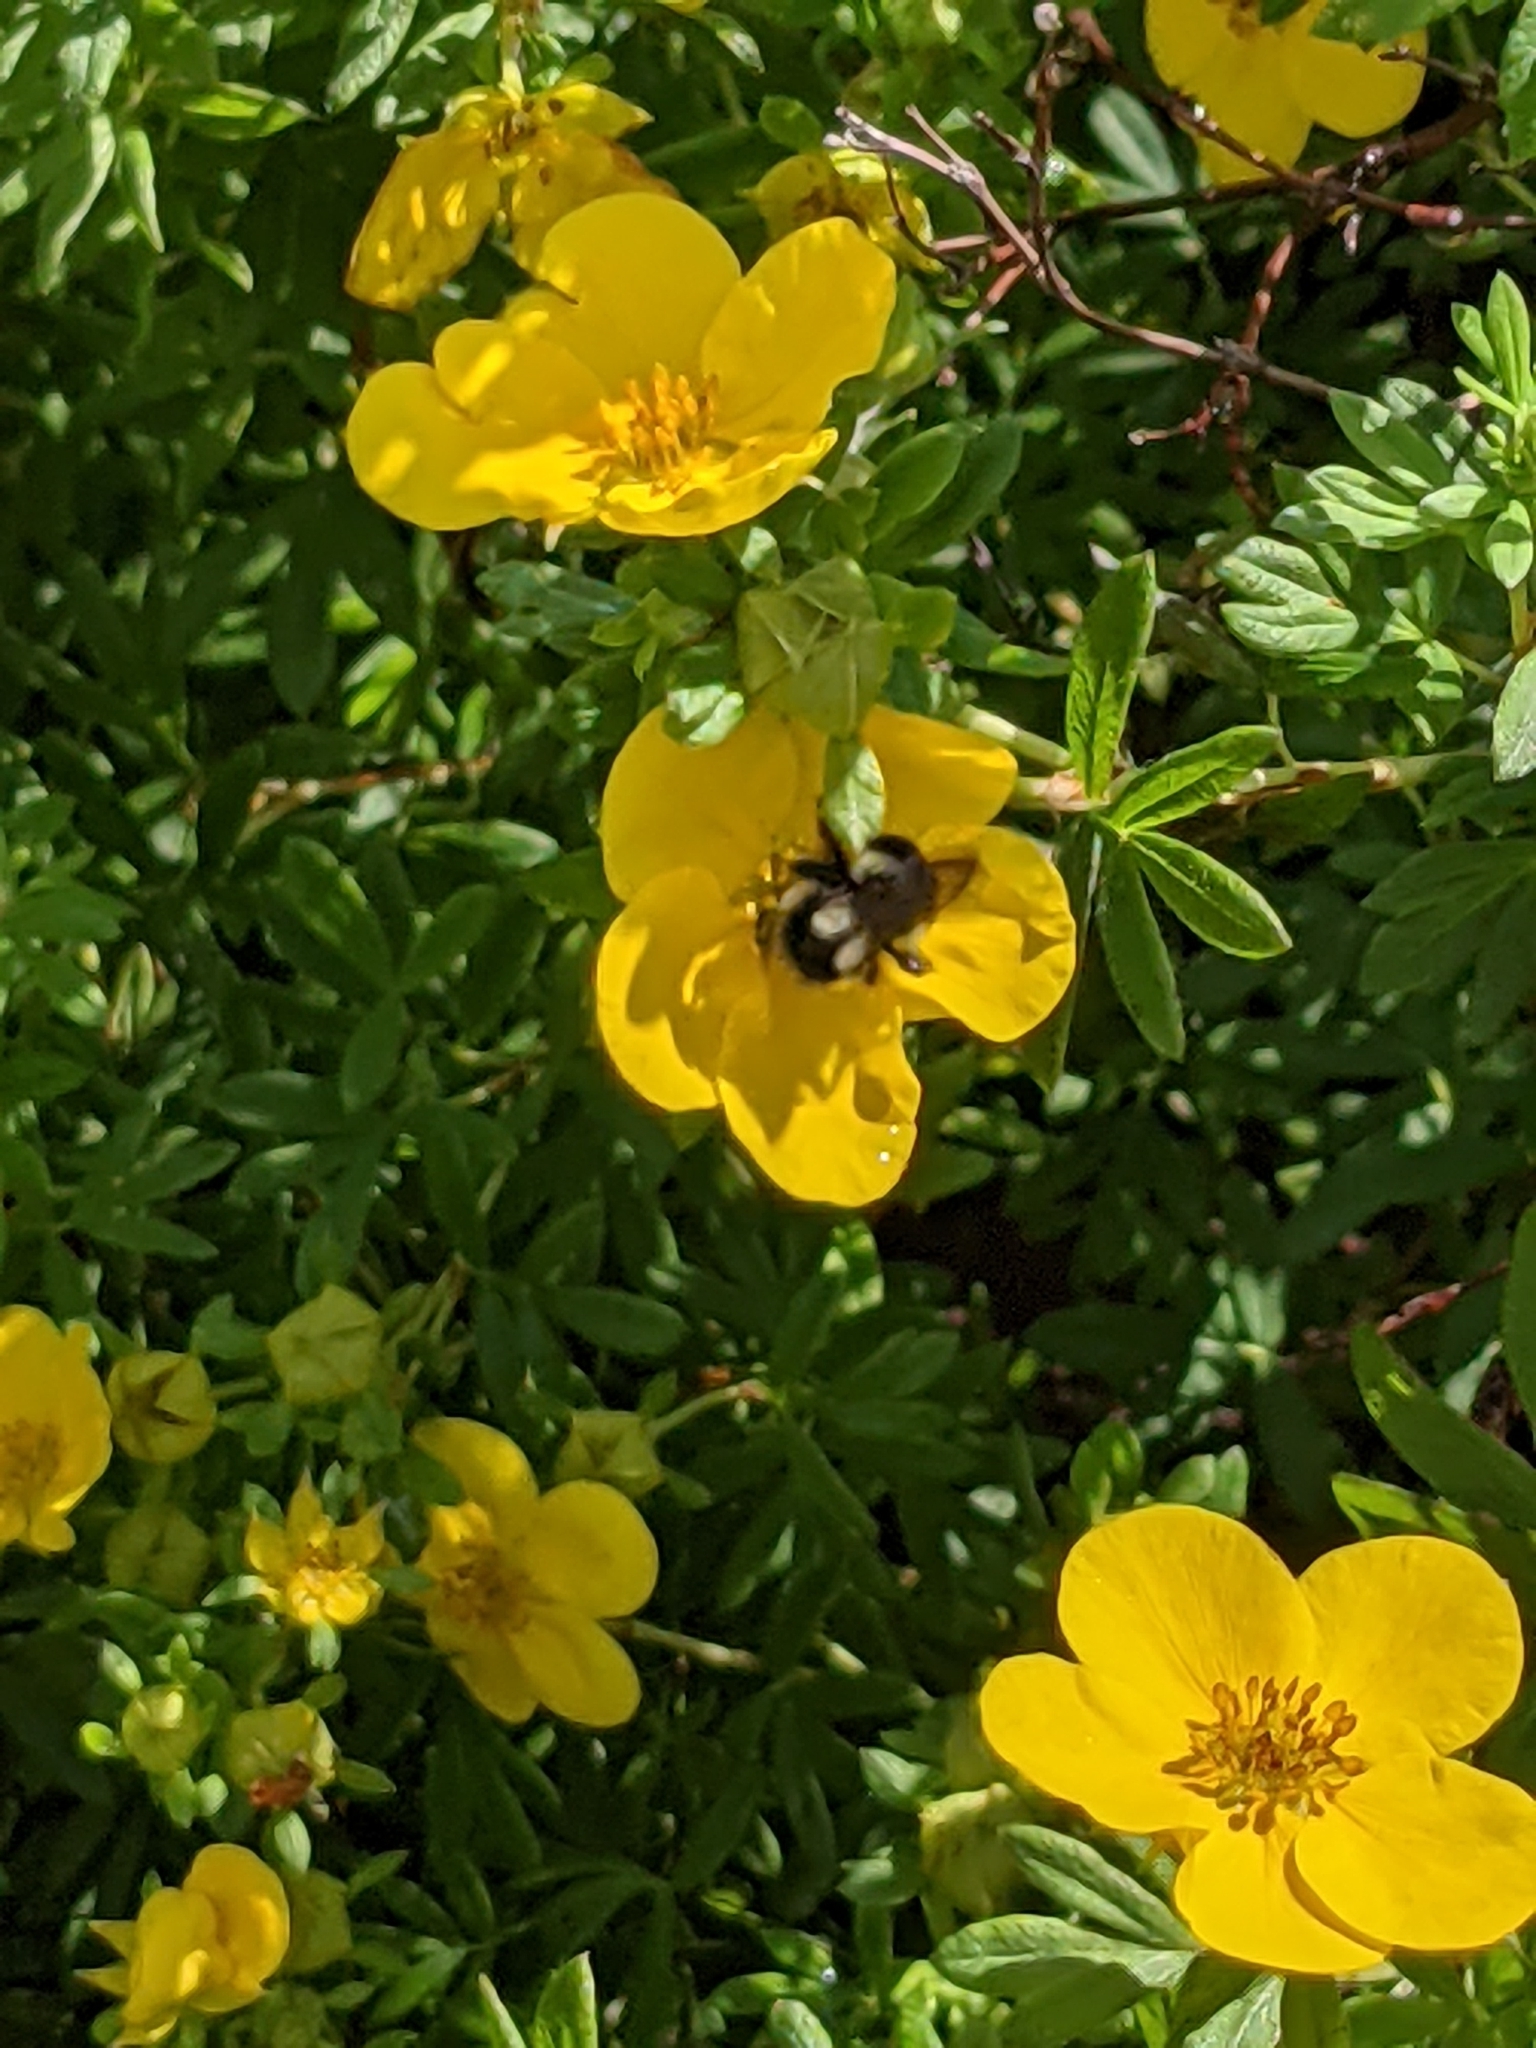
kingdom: Animalia
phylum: Arthropoda
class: Insecta
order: Hymenoptera
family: Apidae
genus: Bombus
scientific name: Bombus vancouverensis
